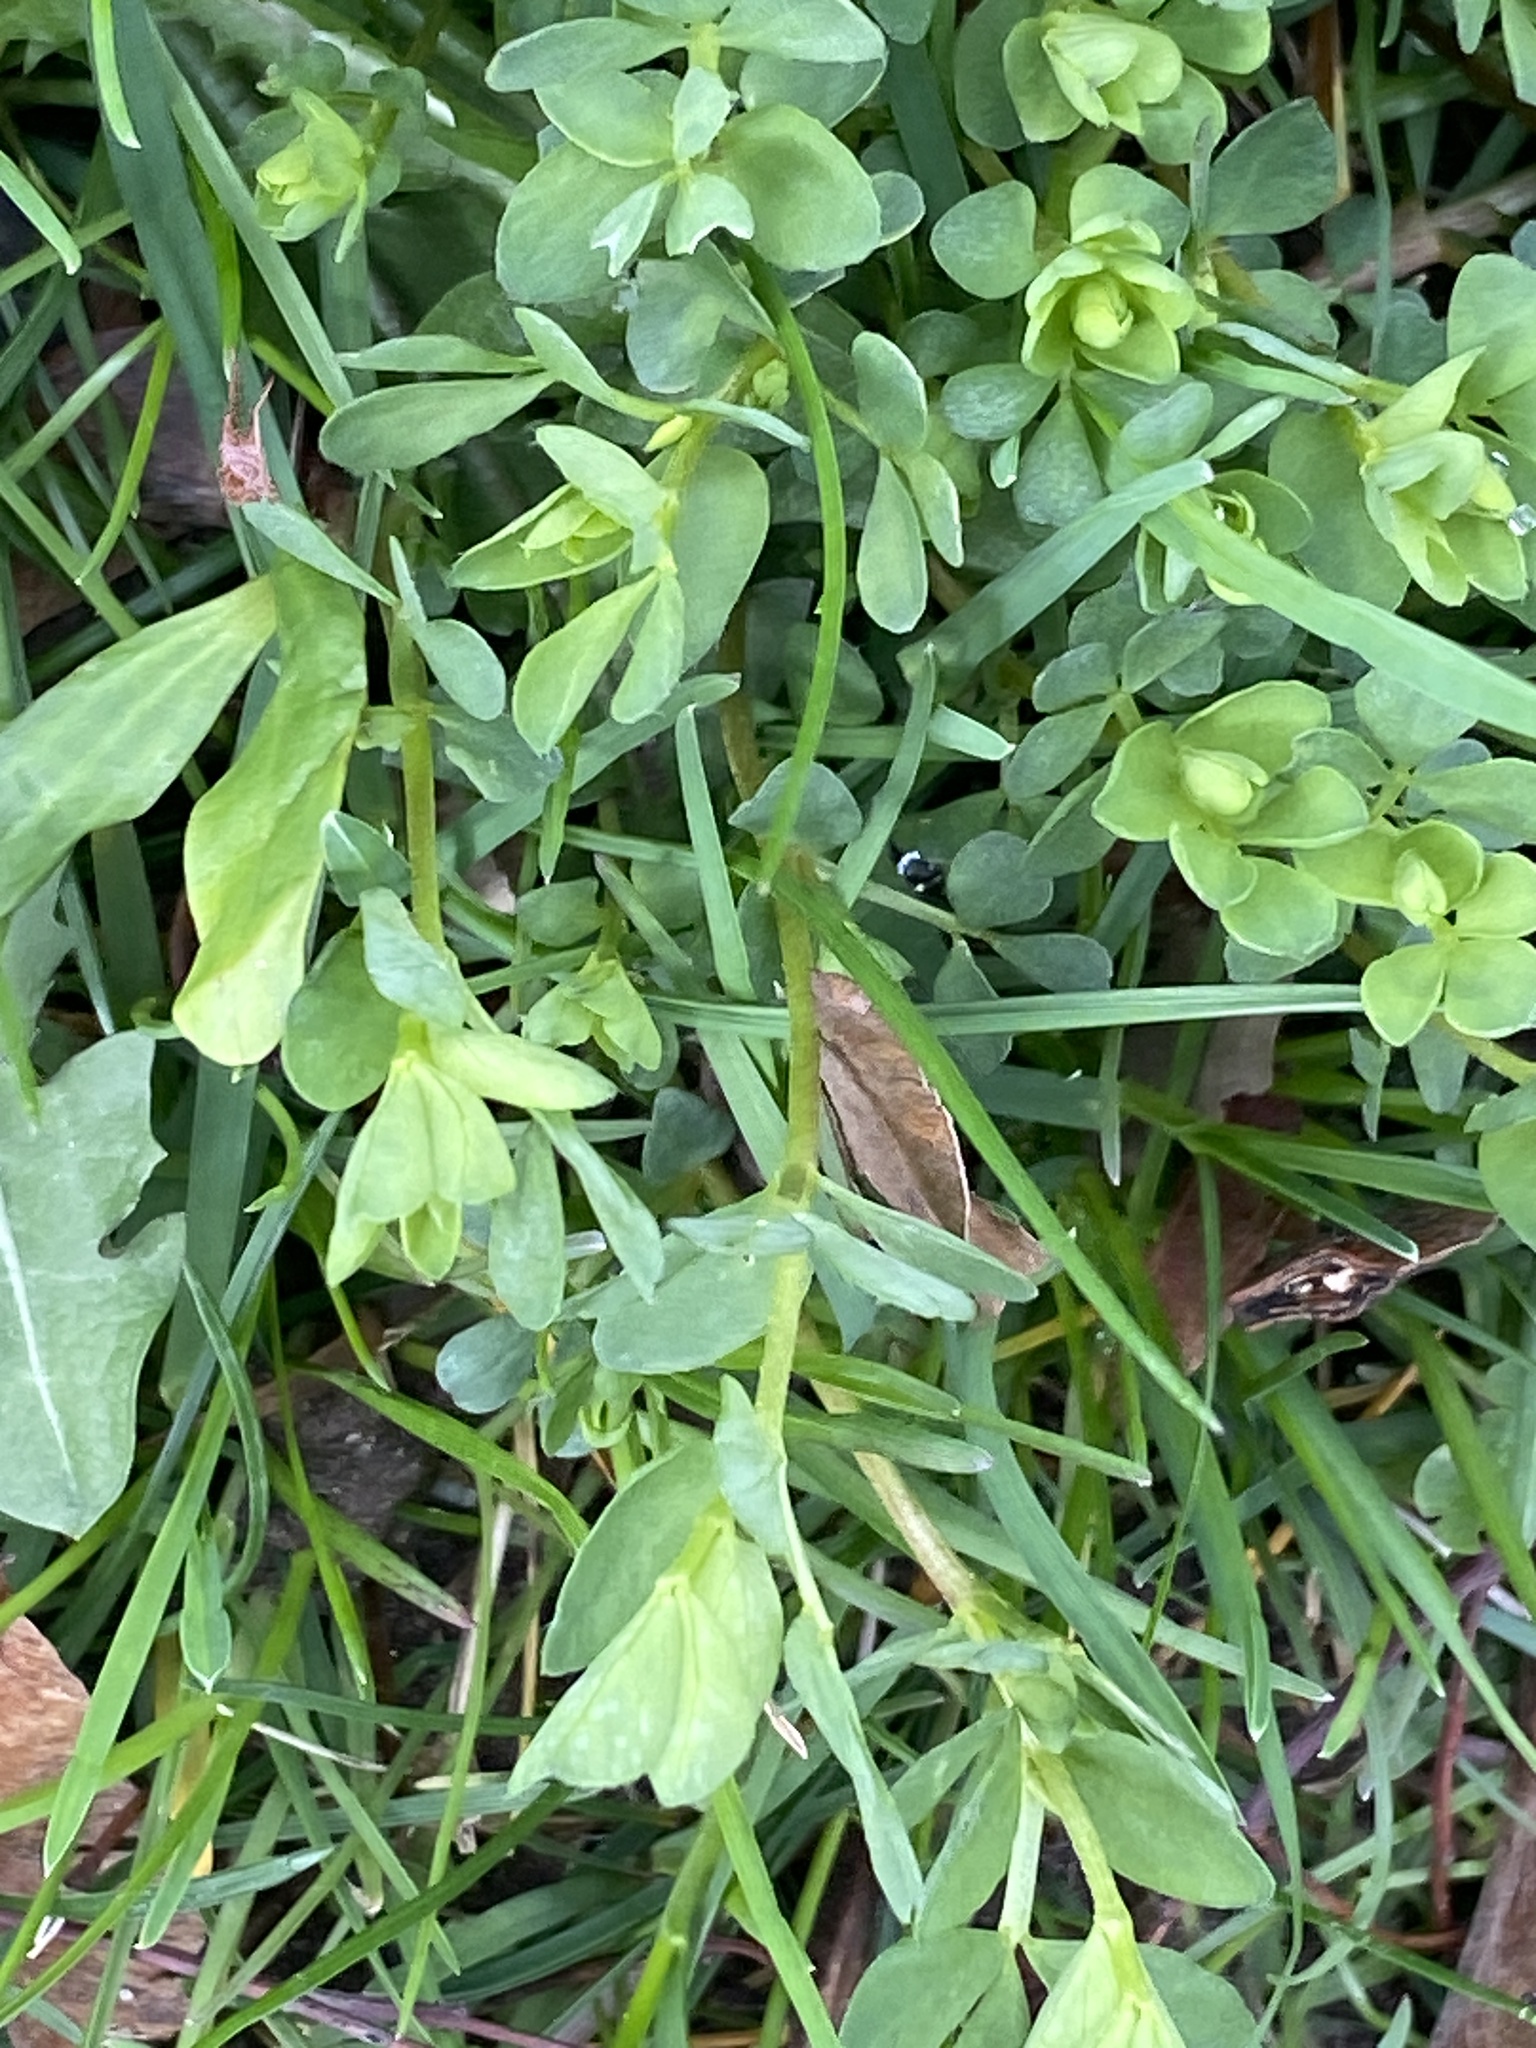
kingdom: Plantae
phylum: Tracheophyta
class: Magnoliopsida
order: Fabales
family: Fabaceae
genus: Lotus
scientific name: Lotus corniculatus
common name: Common bird's-foot-trefoil
